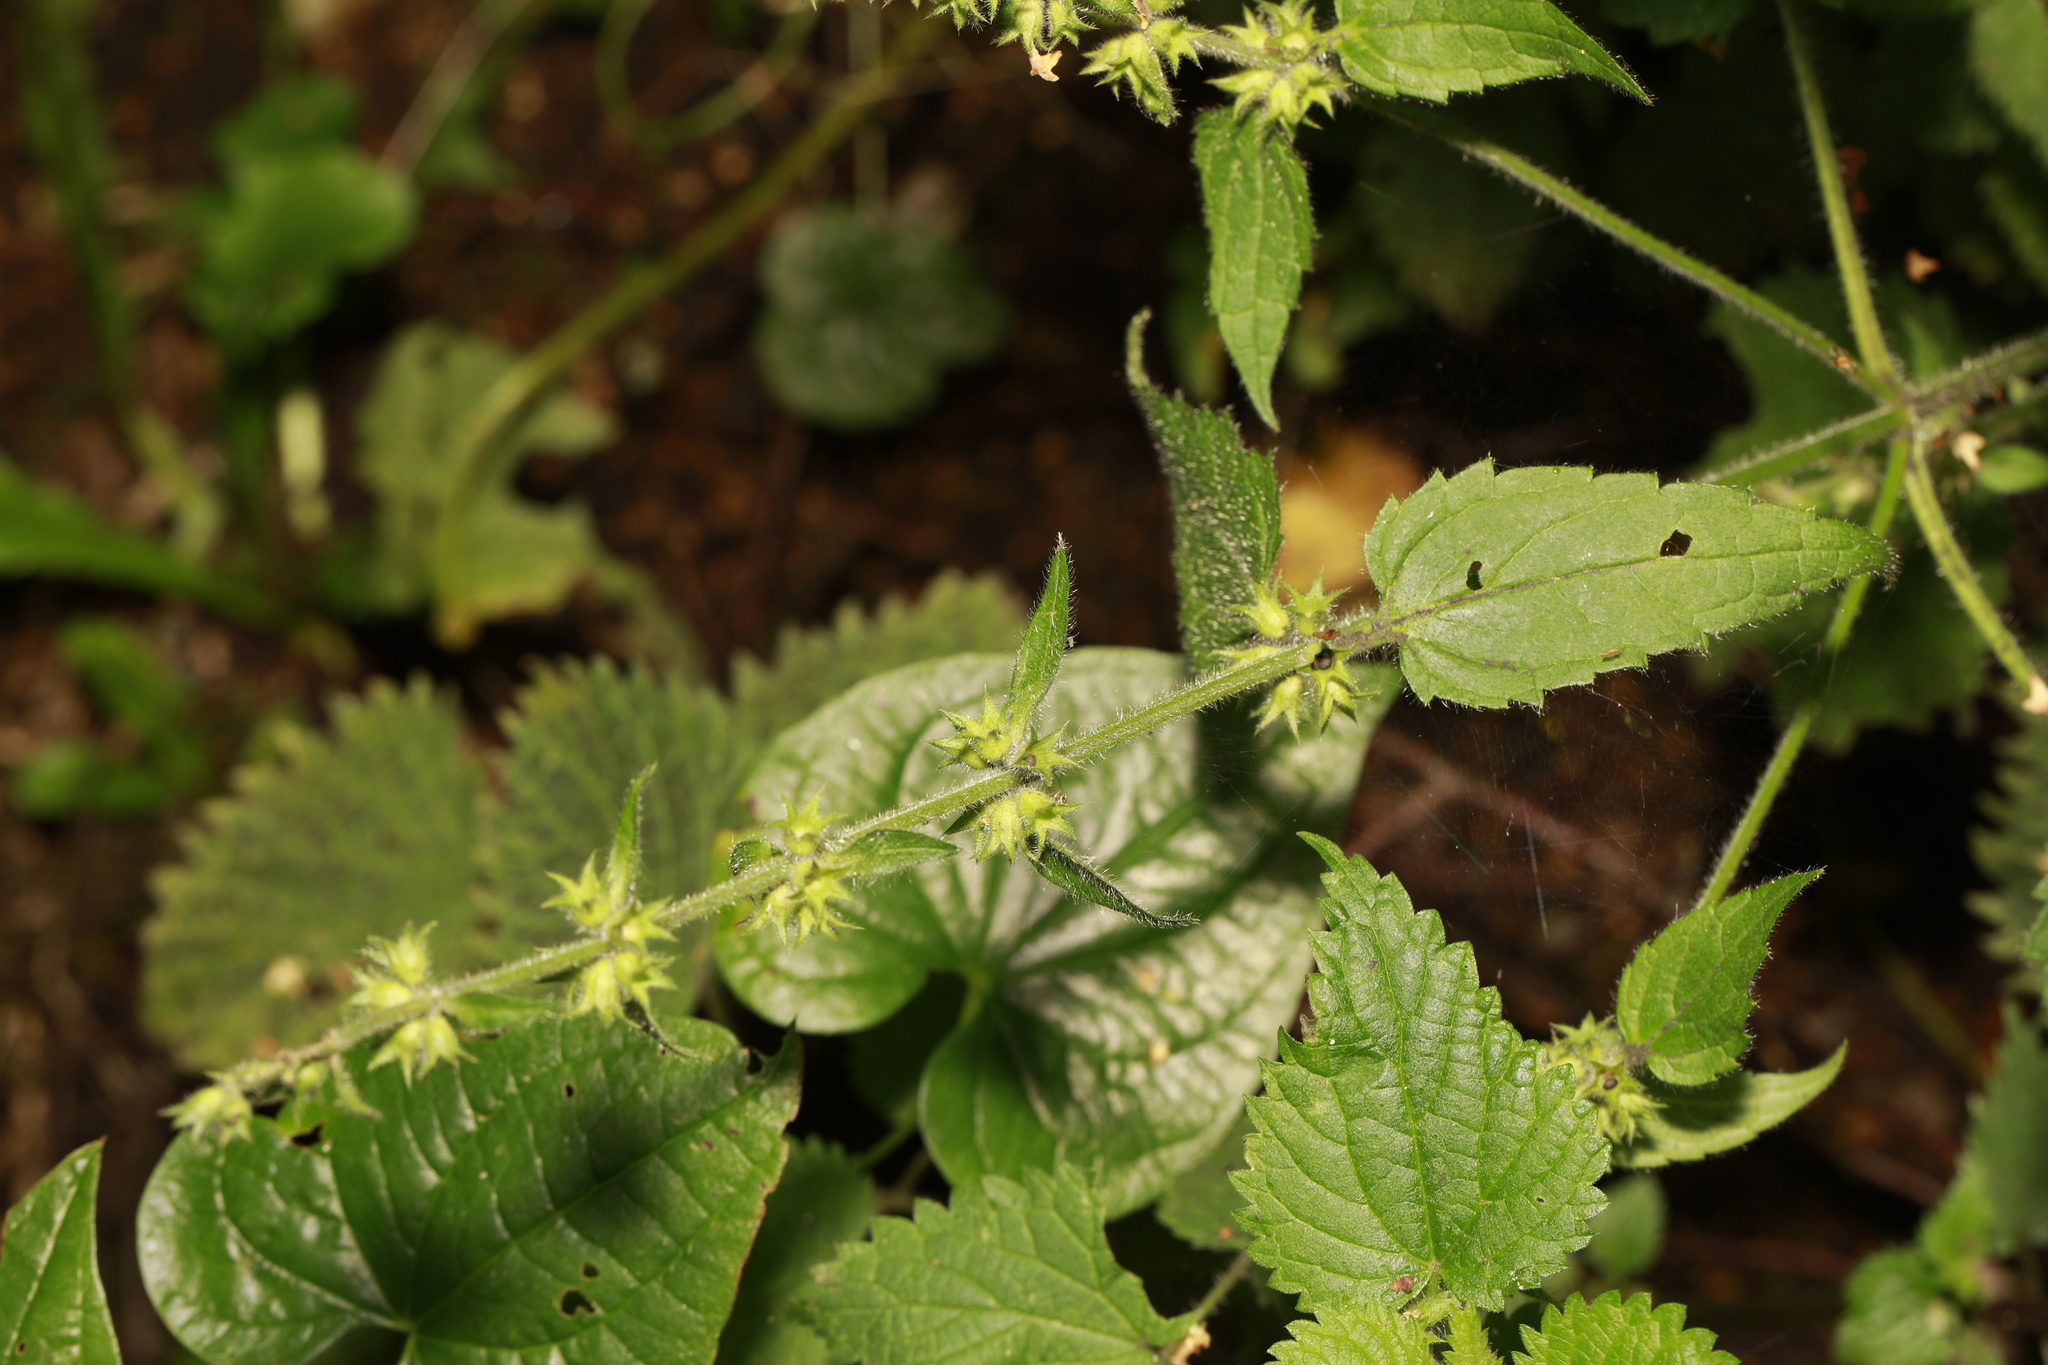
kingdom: Plantae
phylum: Tracheophyta
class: Magnoliopsida
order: Lamiales
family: Lamiaceae
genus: Stachys
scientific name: Stachys sylvatica
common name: Hedge woundwort
